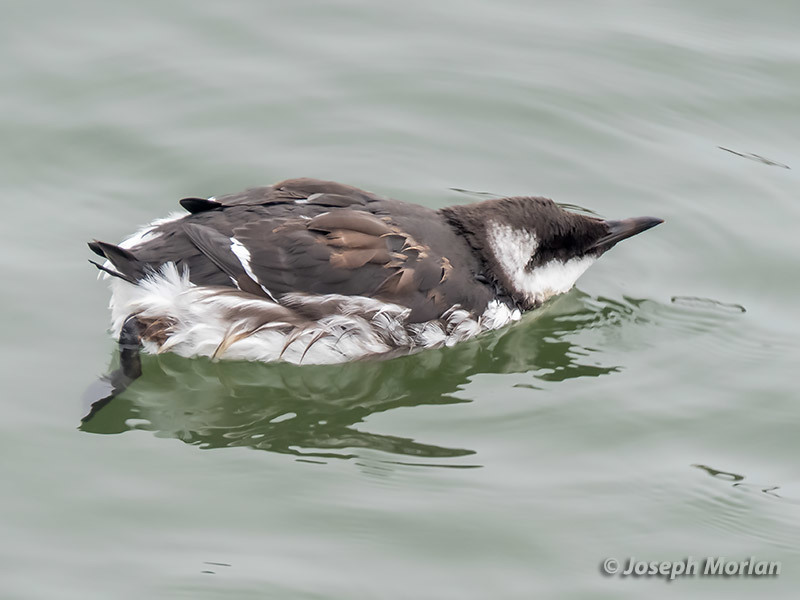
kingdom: Animalia
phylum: Chordata
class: Aves
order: Charadriiformes
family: Alcidae
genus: Uria
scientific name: Uria aalge
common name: Common murre
